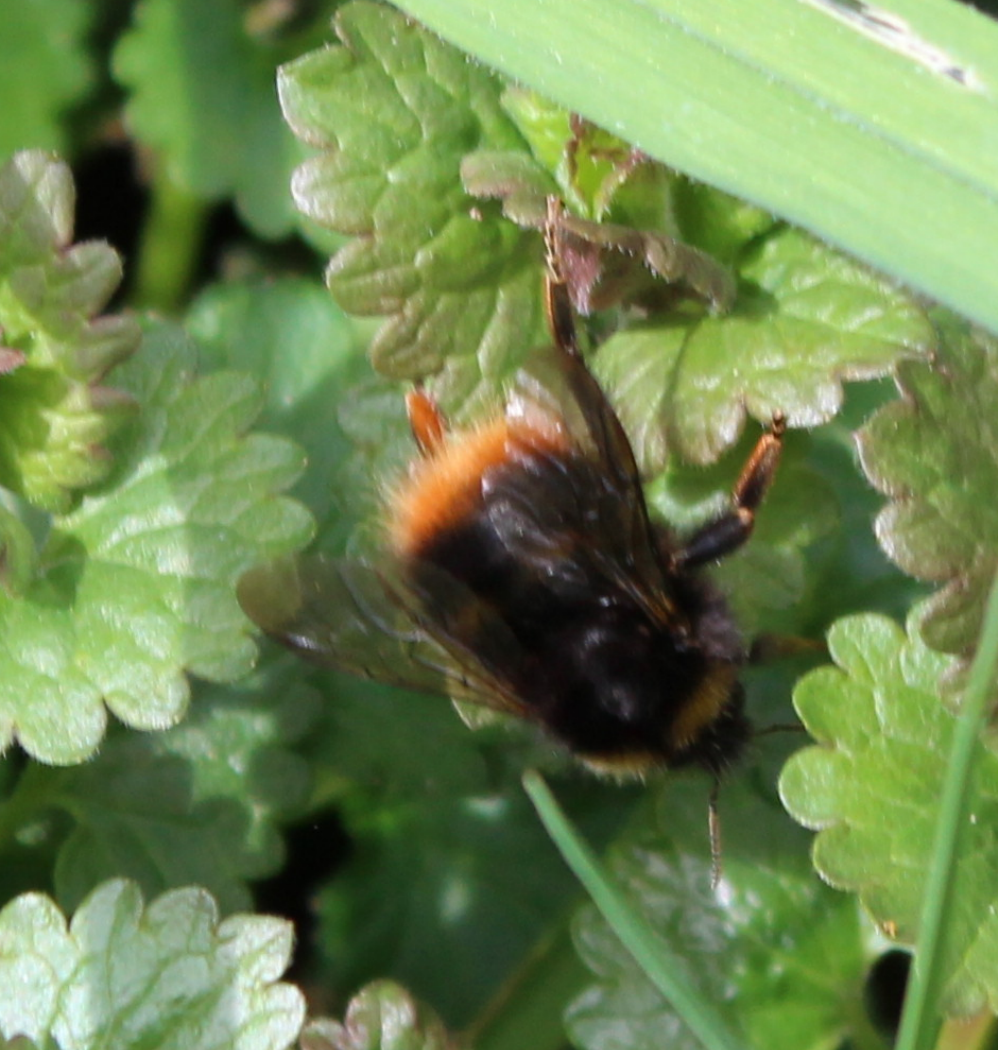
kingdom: Animalia
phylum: Arthropoda
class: Insecta
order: Hymenoptera
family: Apidae
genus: Bombus
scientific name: Bombus pratorum
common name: Early humble-bee
